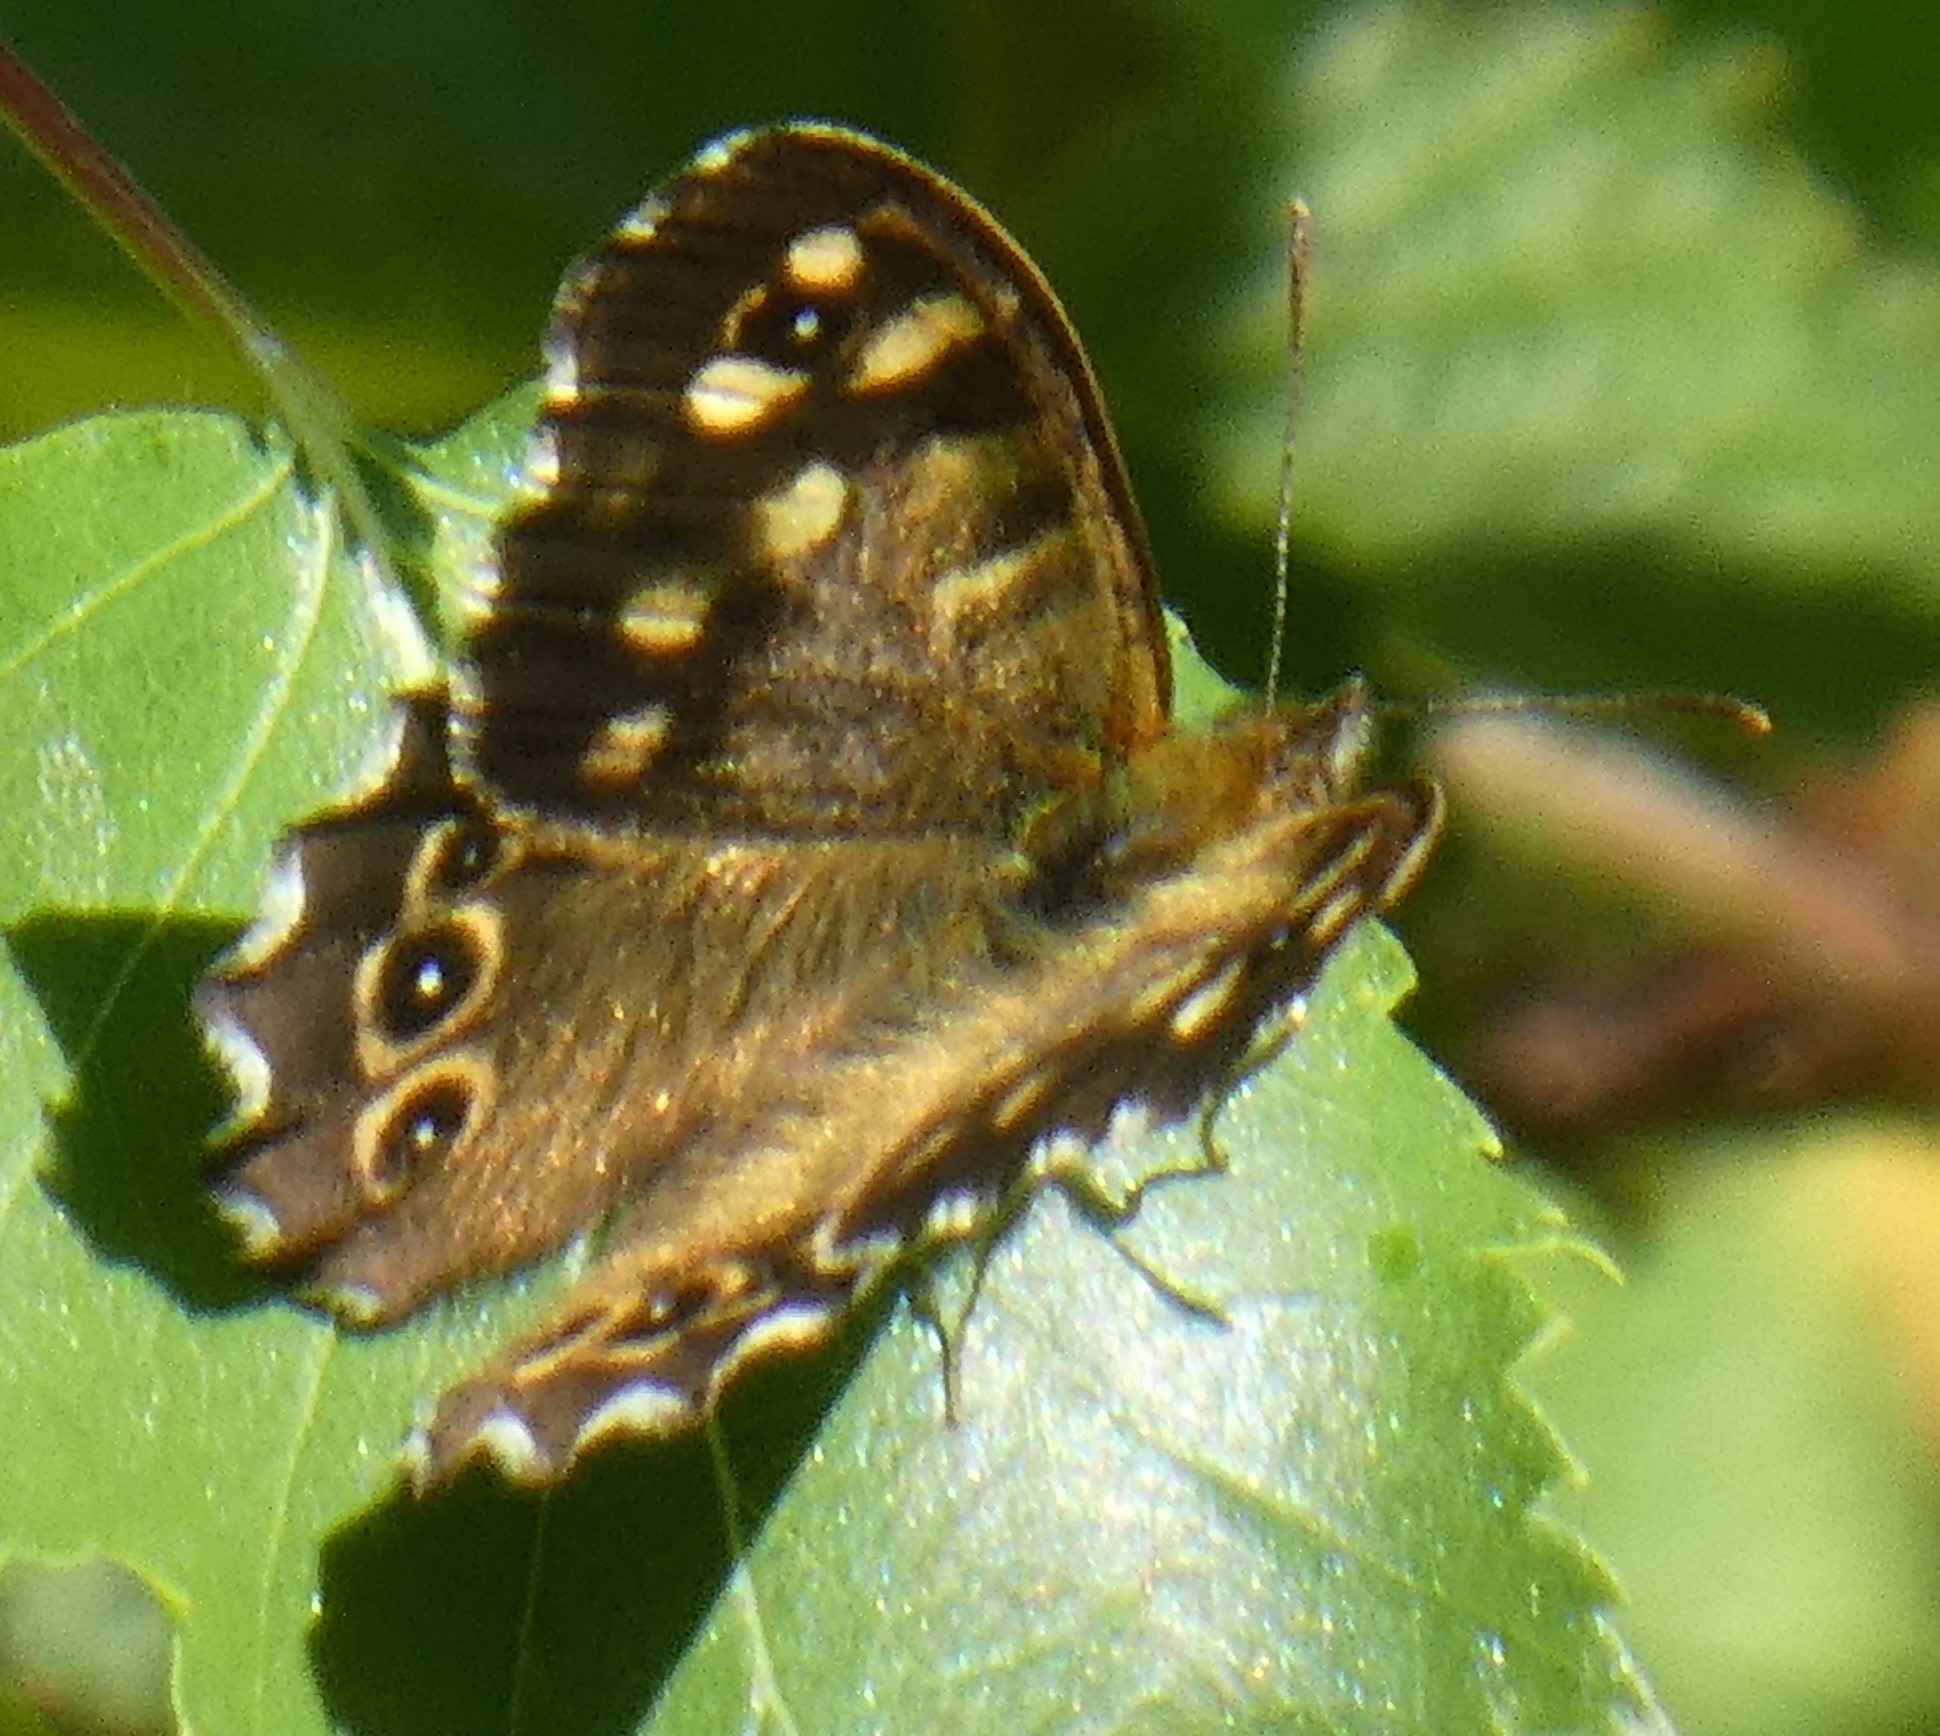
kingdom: Animalia
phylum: Arthropoda
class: Insecta
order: Lepidoptera
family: Nymphalidae
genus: Pararge
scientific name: Pararge aegeria
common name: Speckled wood
